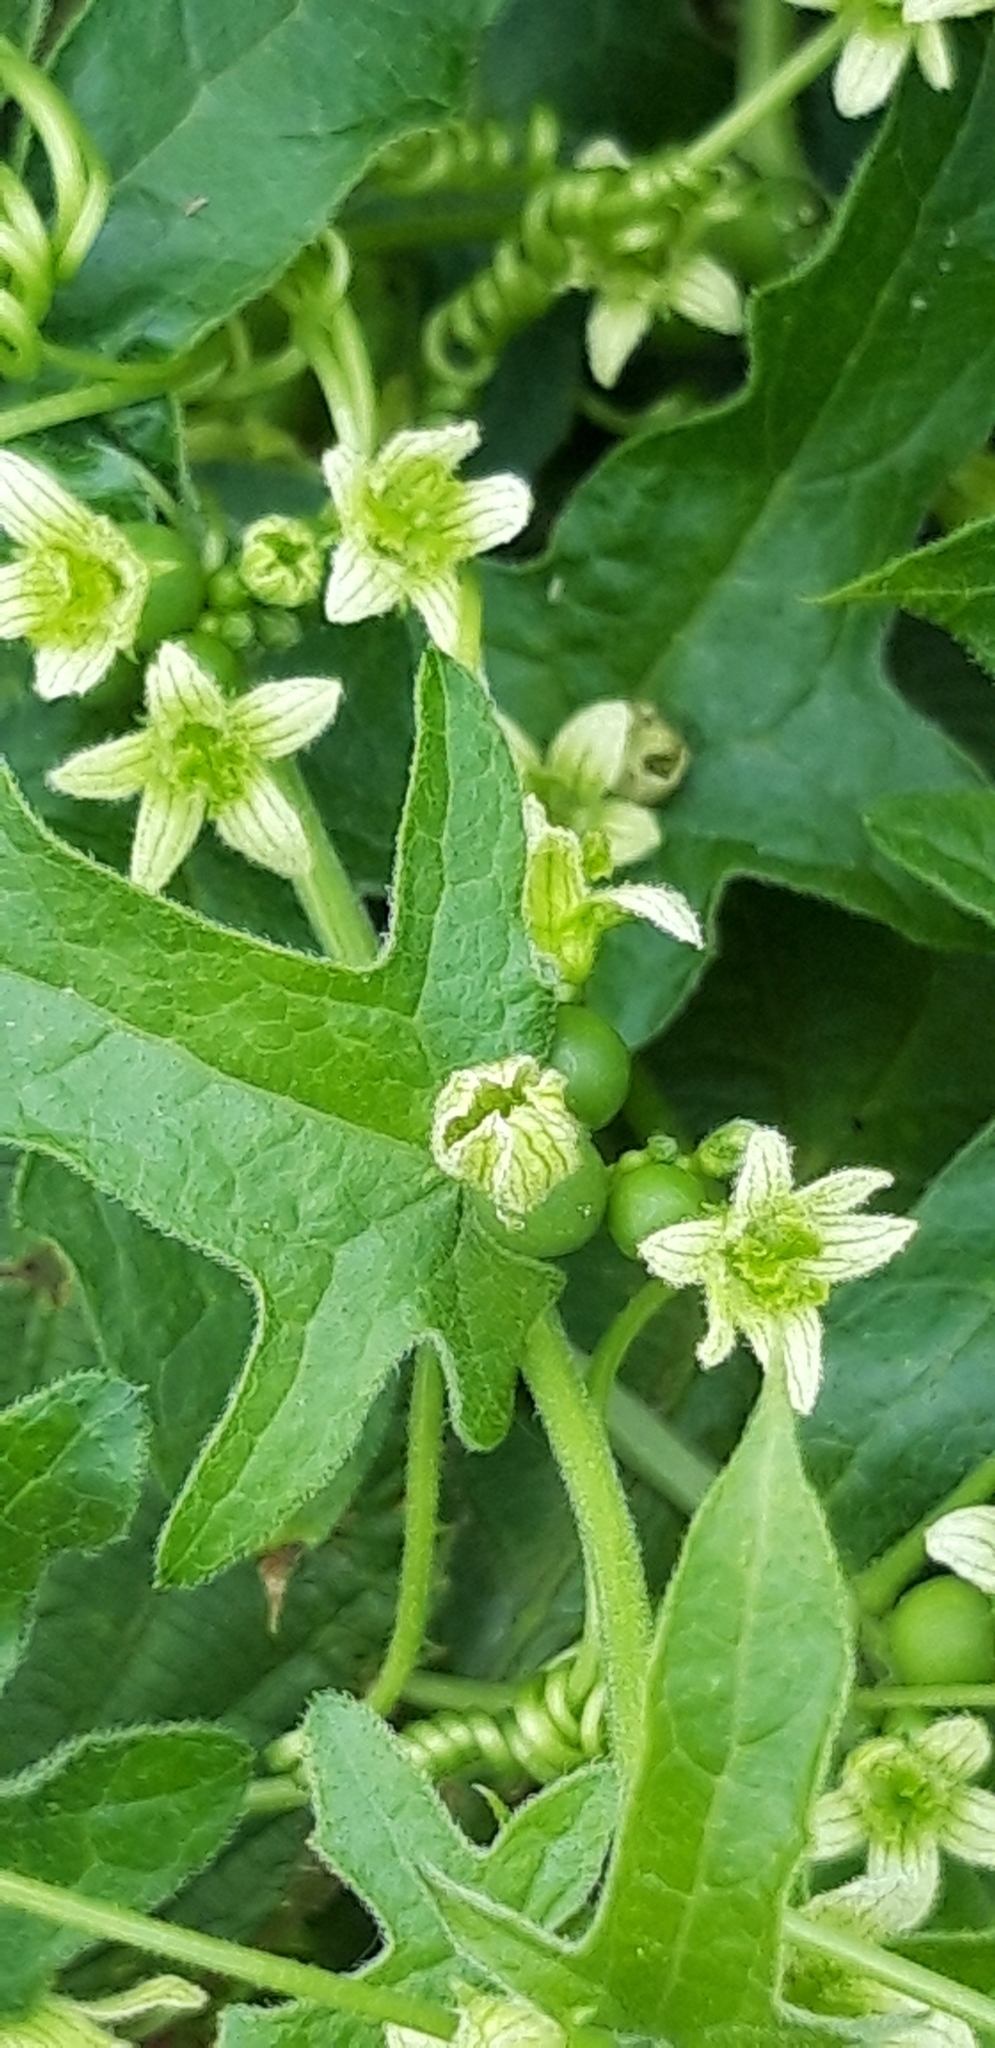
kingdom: Plantae
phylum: Tracheophyta
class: Magnoliopsida
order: Cucurbitales
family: Cucurbitaceae
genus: Bryonia
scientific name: Bryonia dioica
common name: White bryony
